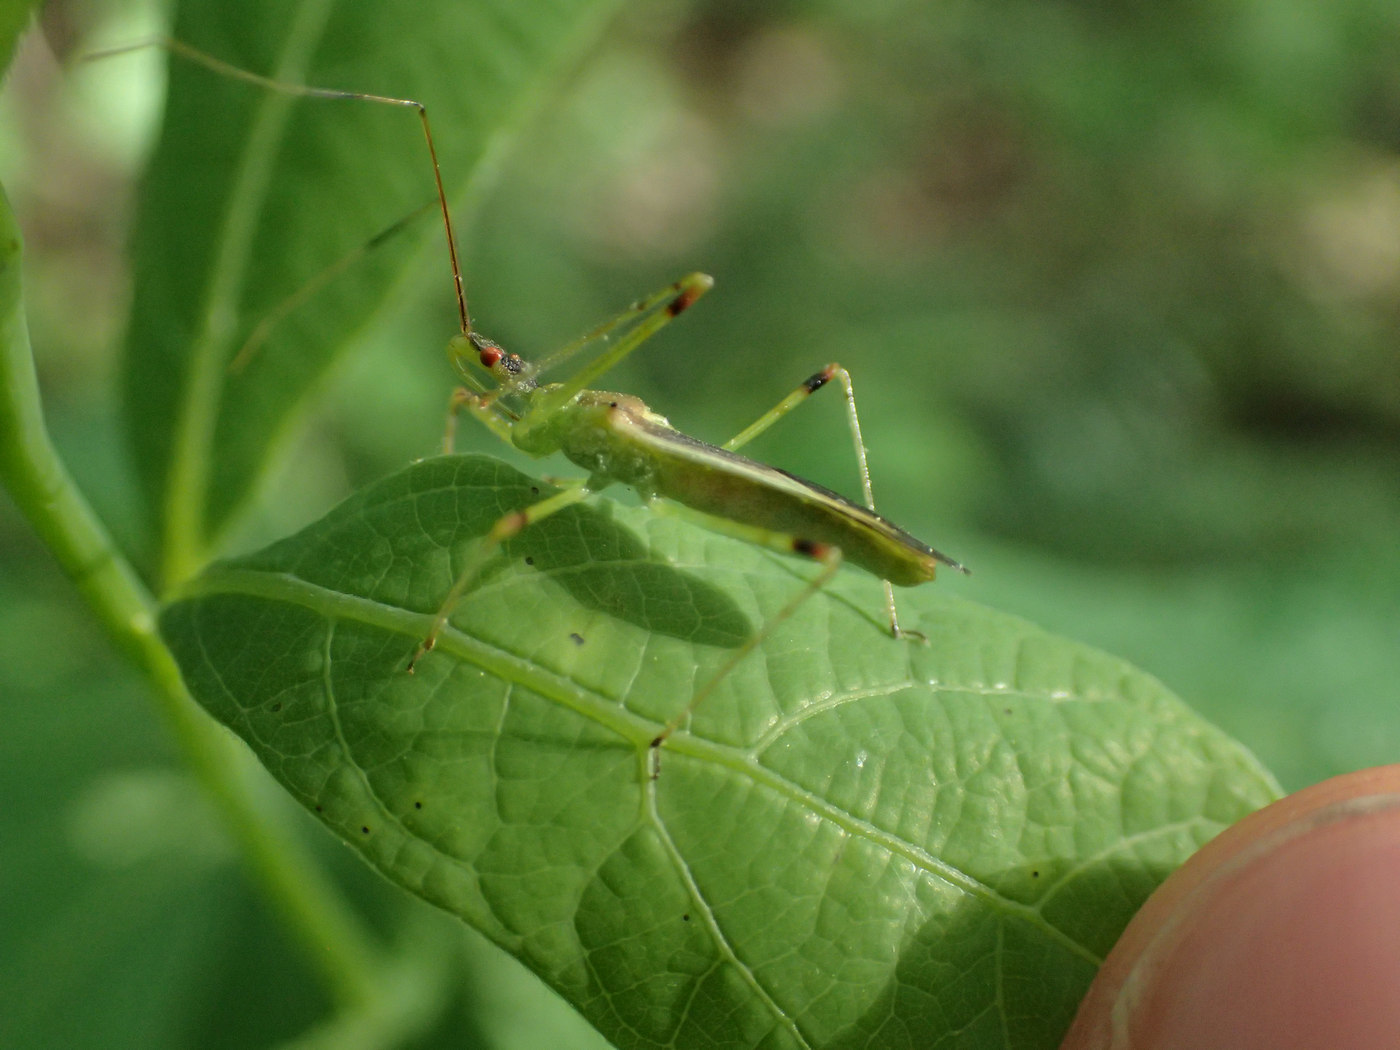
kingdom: Animalia
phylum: Arthropoda
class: Insecta
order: Hemiptera
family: Reduviidae
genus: Zelus
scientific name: Zelus luridus
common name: Pale green assassin bug
